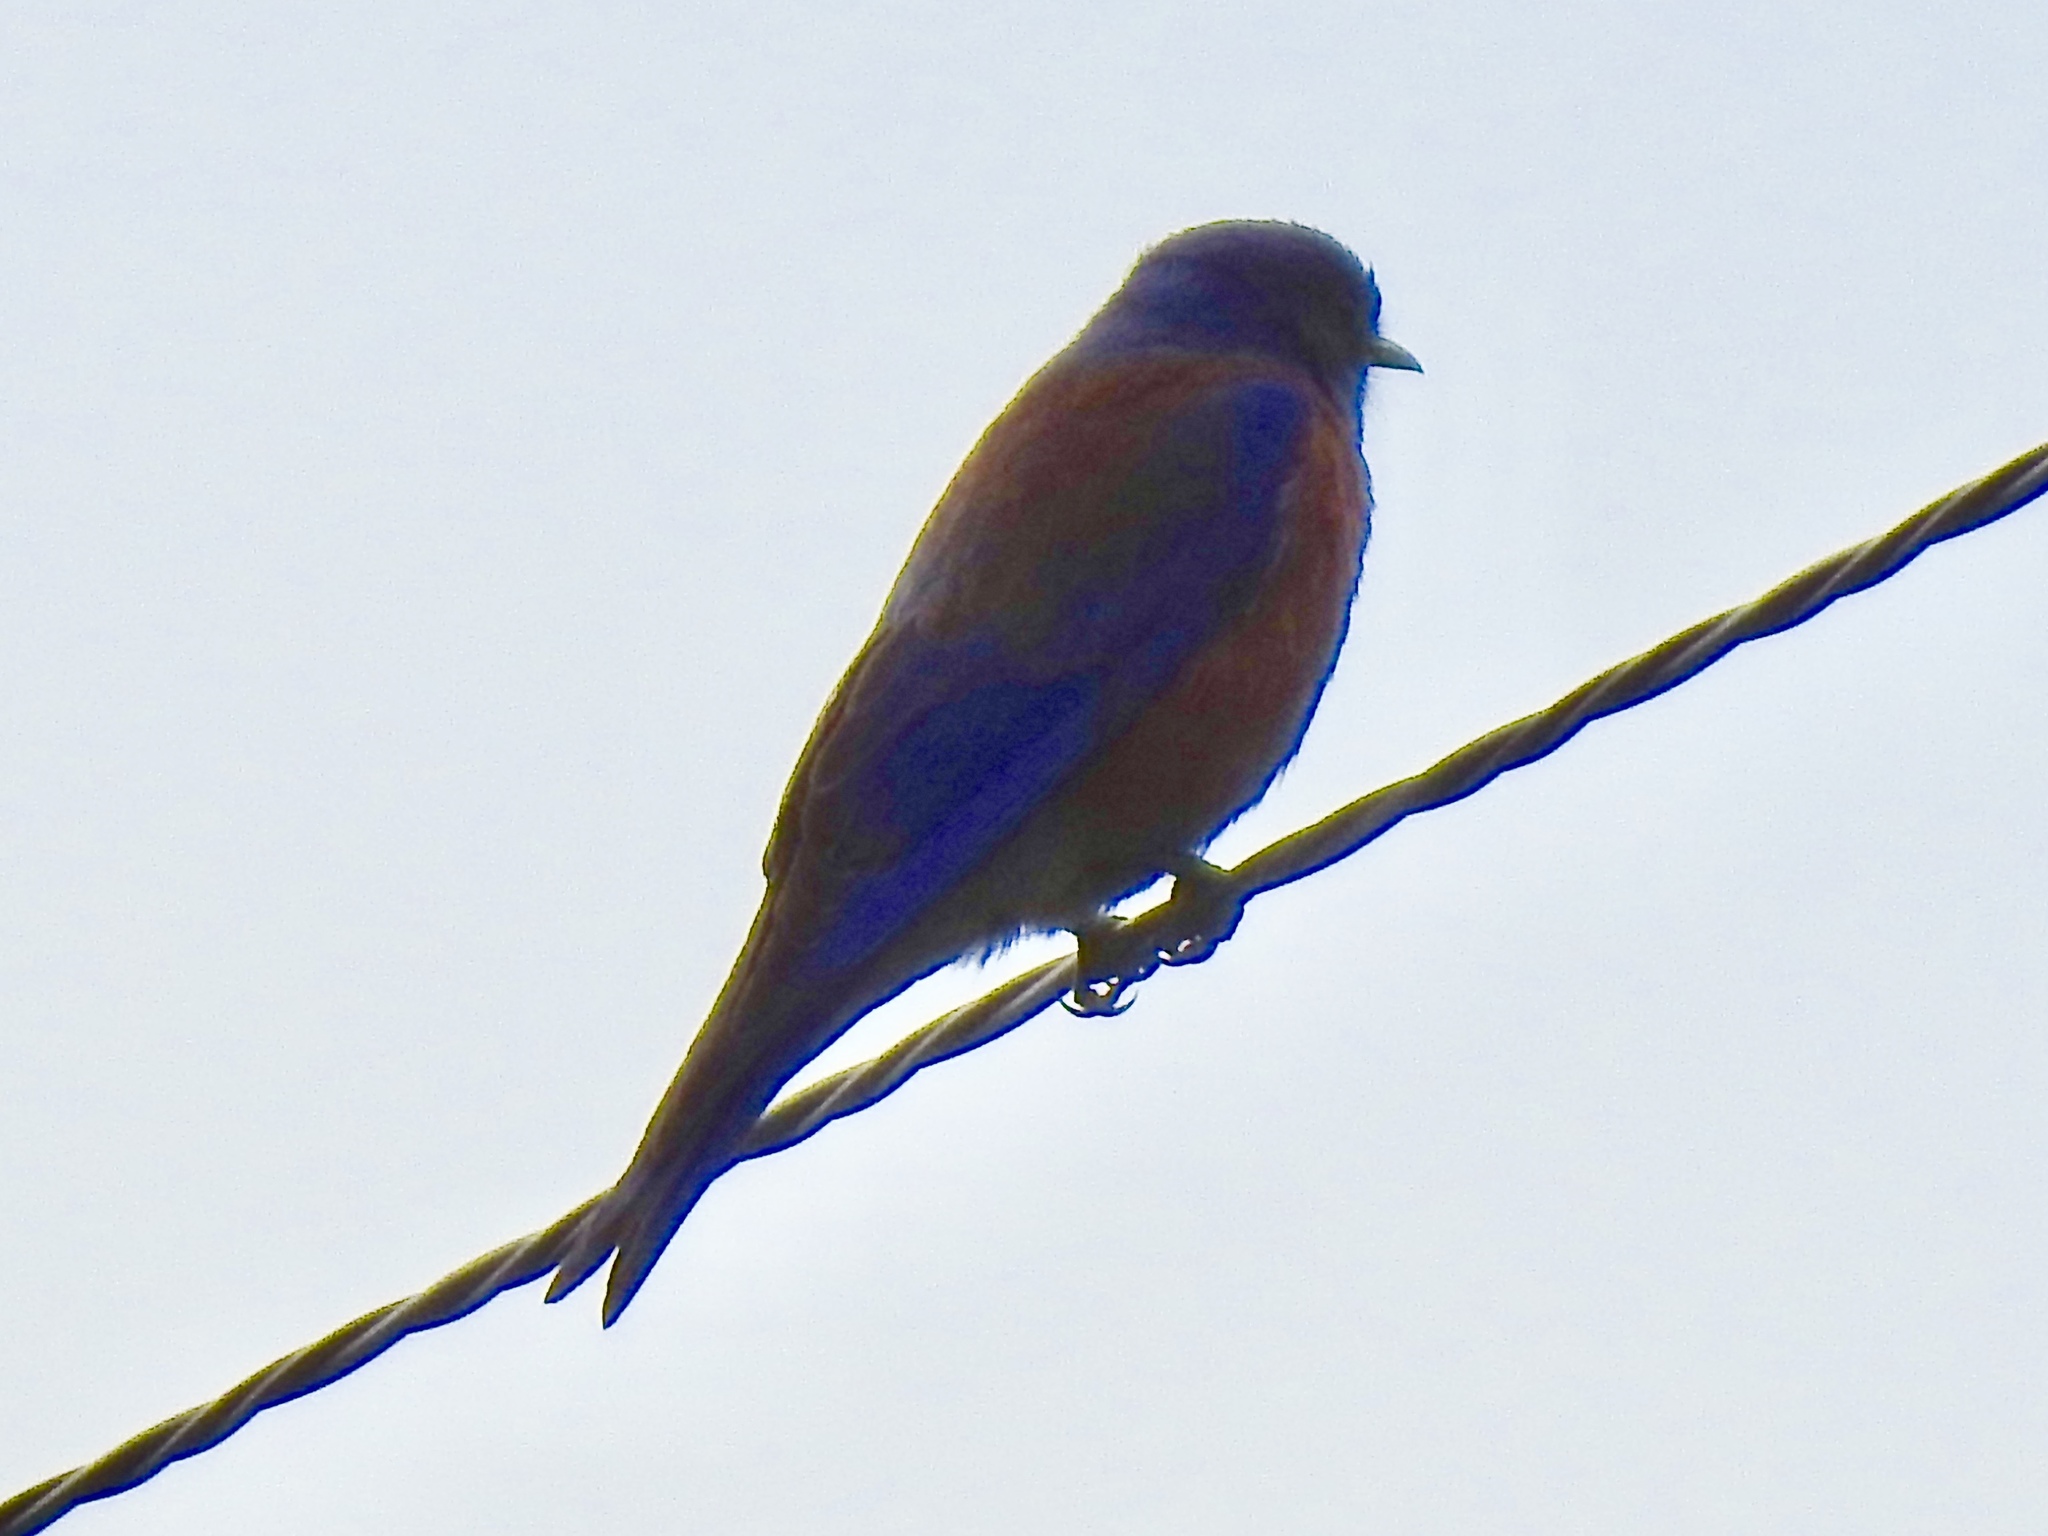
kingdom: Animalia
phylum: Chordata
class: Aves
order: Passeriformes
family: Turdidae
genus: Sialia
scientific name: Sialia mexicana
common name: Western bluebird
